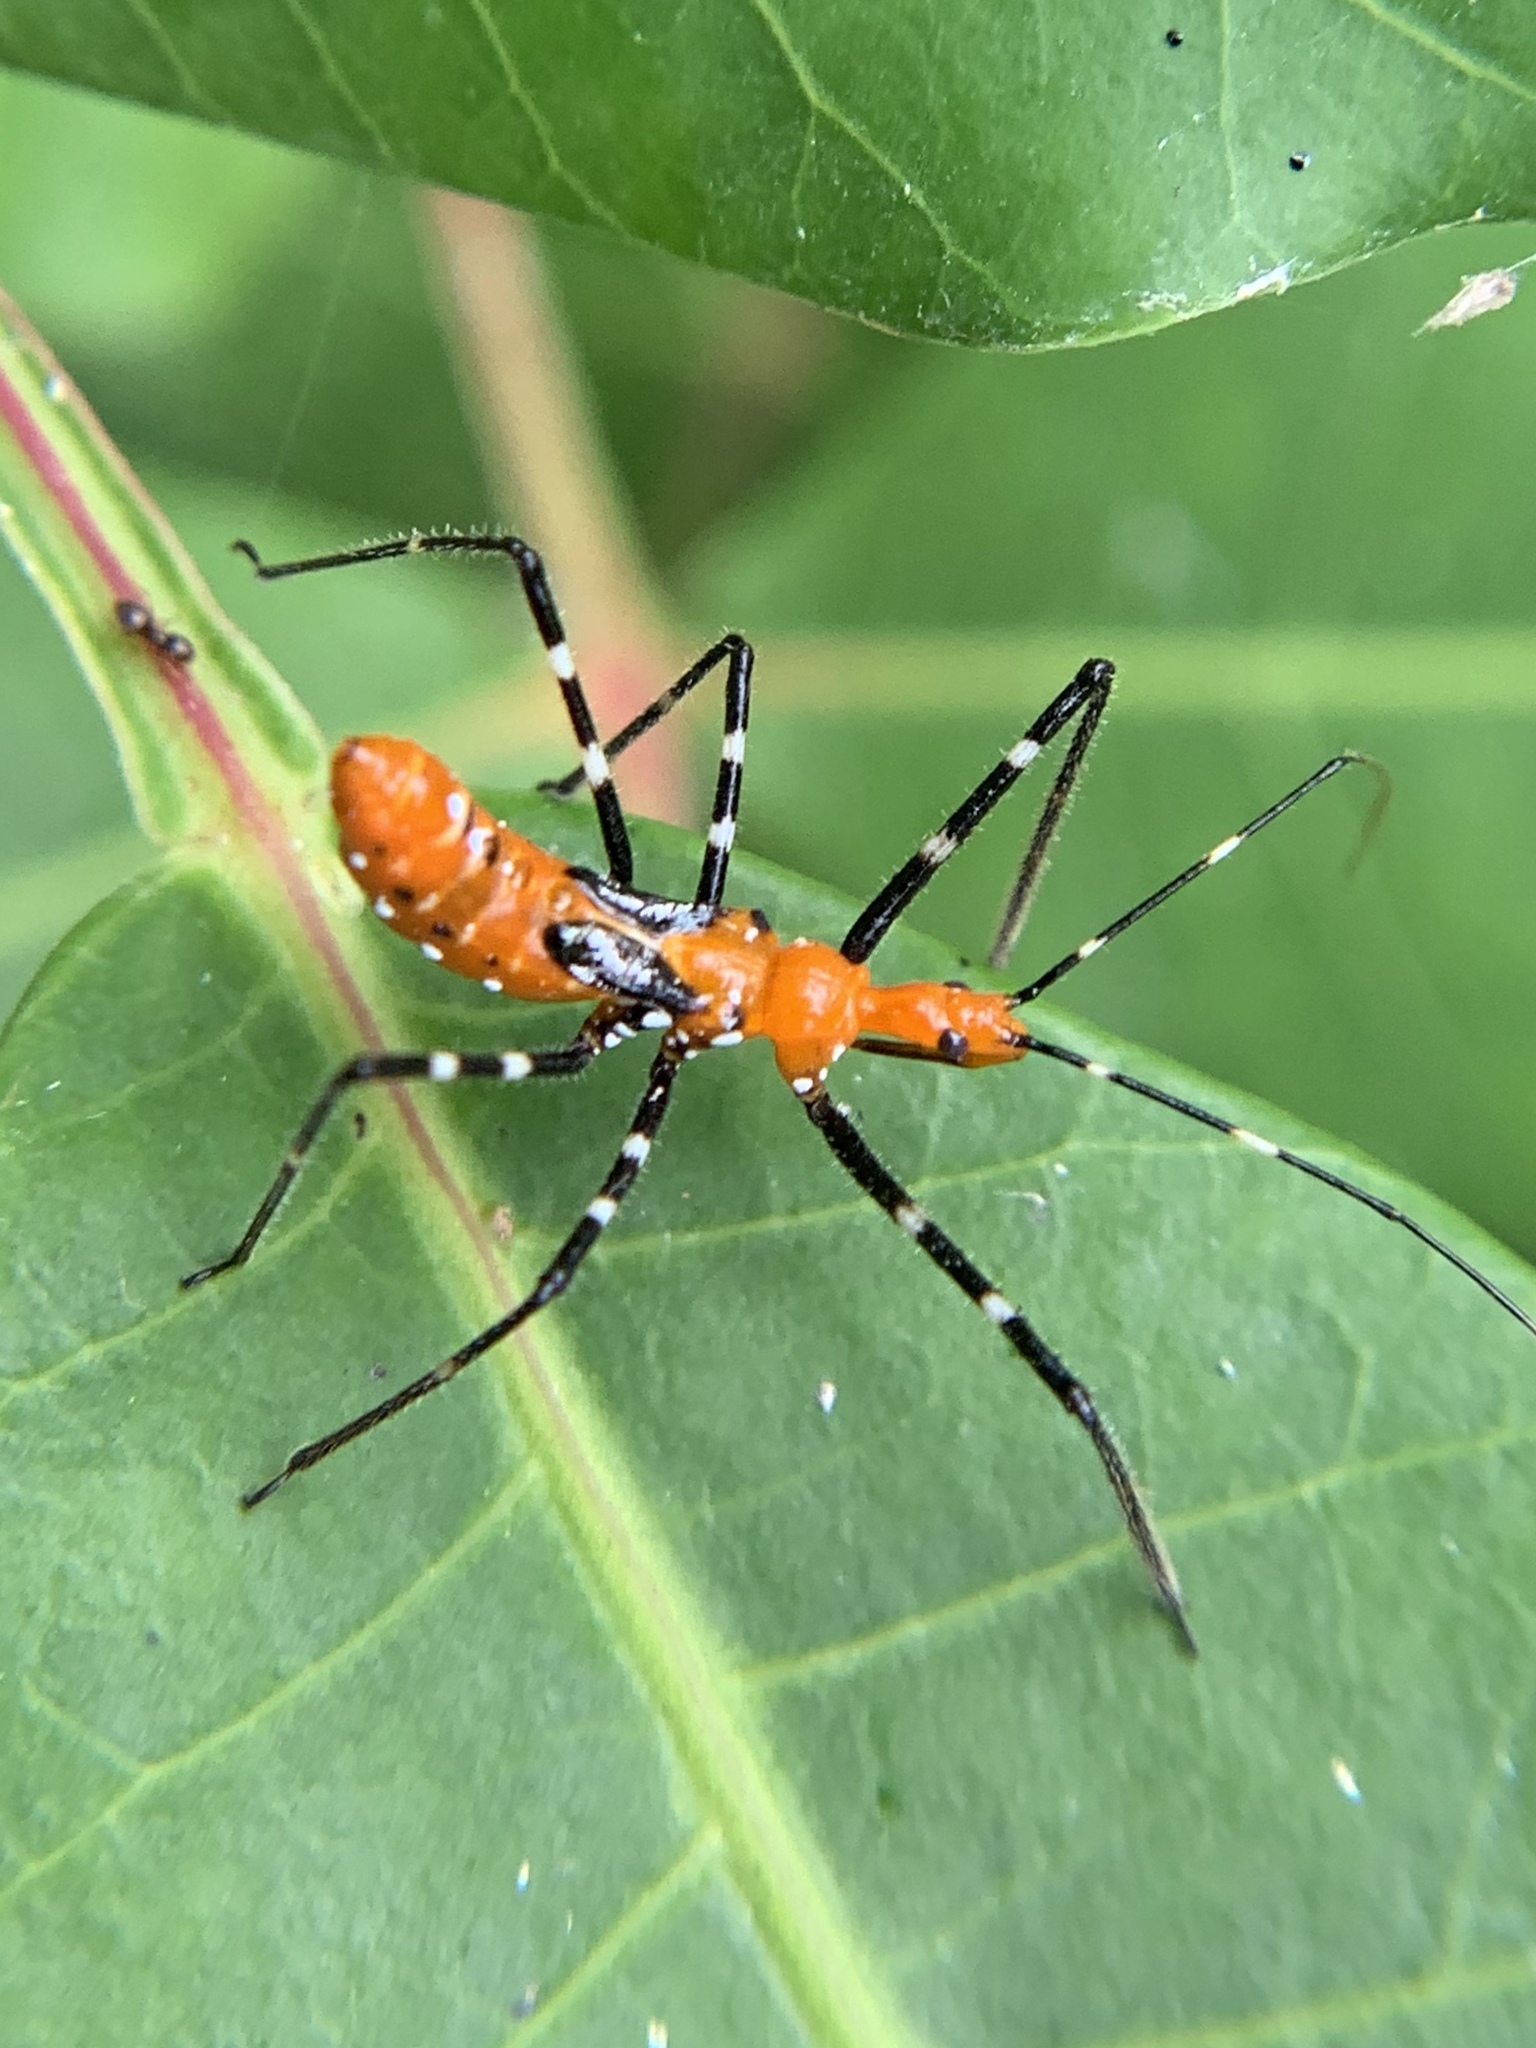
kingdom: Animalia
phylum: Arthropoda
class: Insecta
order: Hemiptera
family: Reduviidae
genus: Zelus
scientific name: Zelus longipes
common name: Milkweed assassin bug
